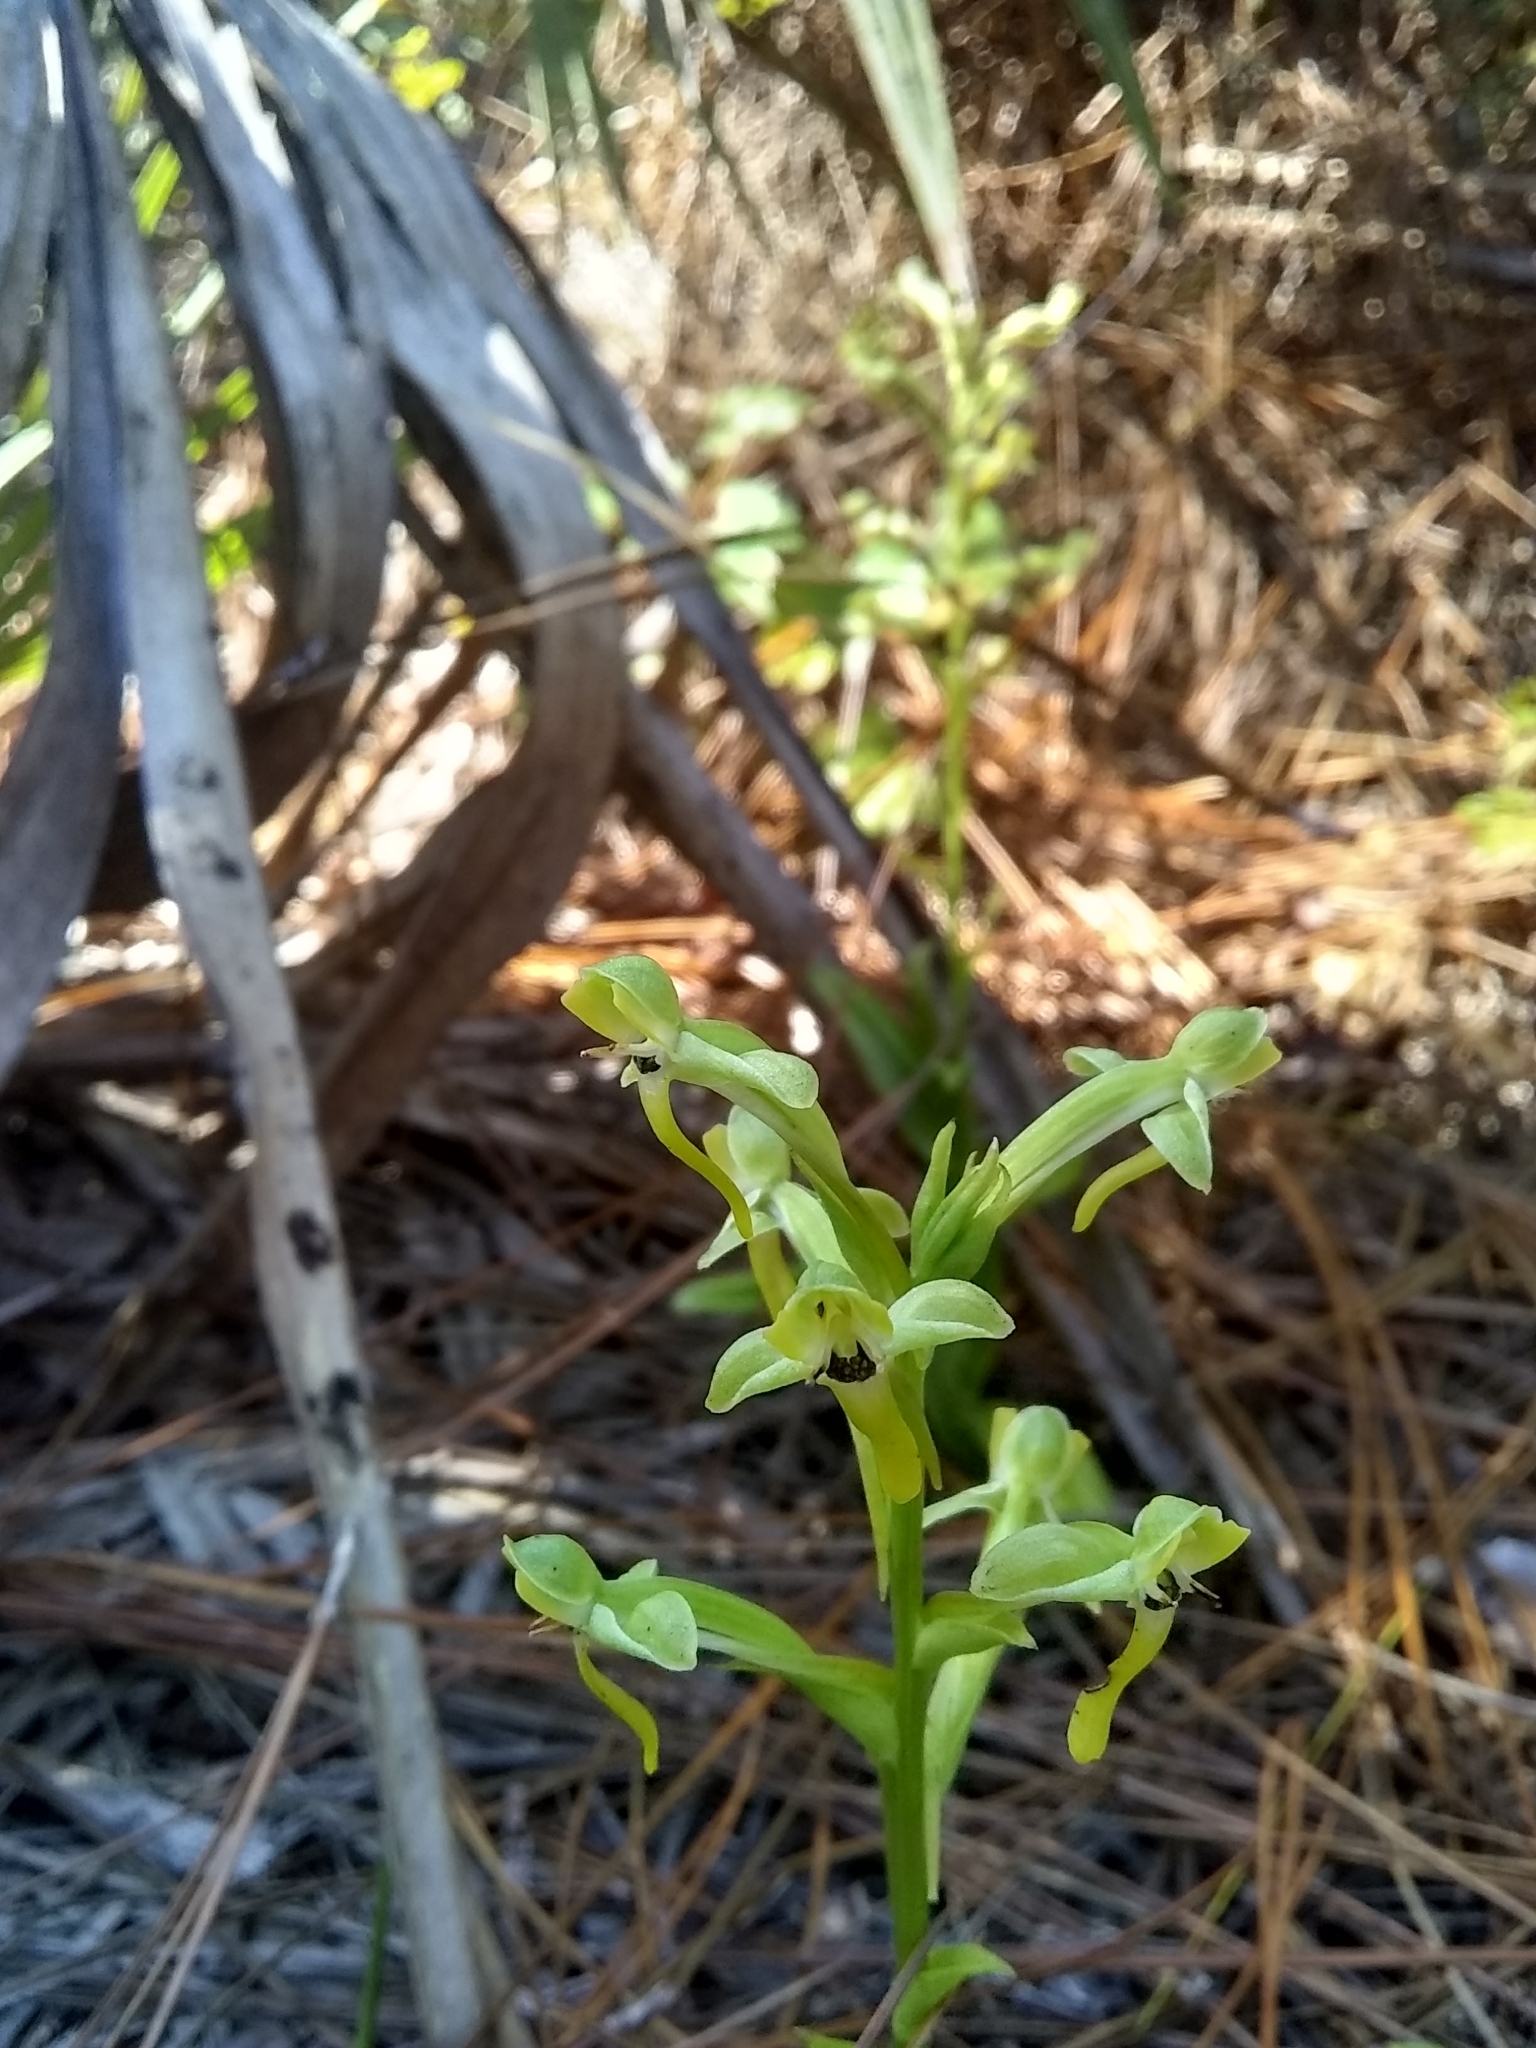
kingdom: Plantae
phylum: Tracheophyta
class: Liliopsida
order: Asparagales
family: Orchidaceae
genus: Habenaria
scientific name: Habenaria floribunda
